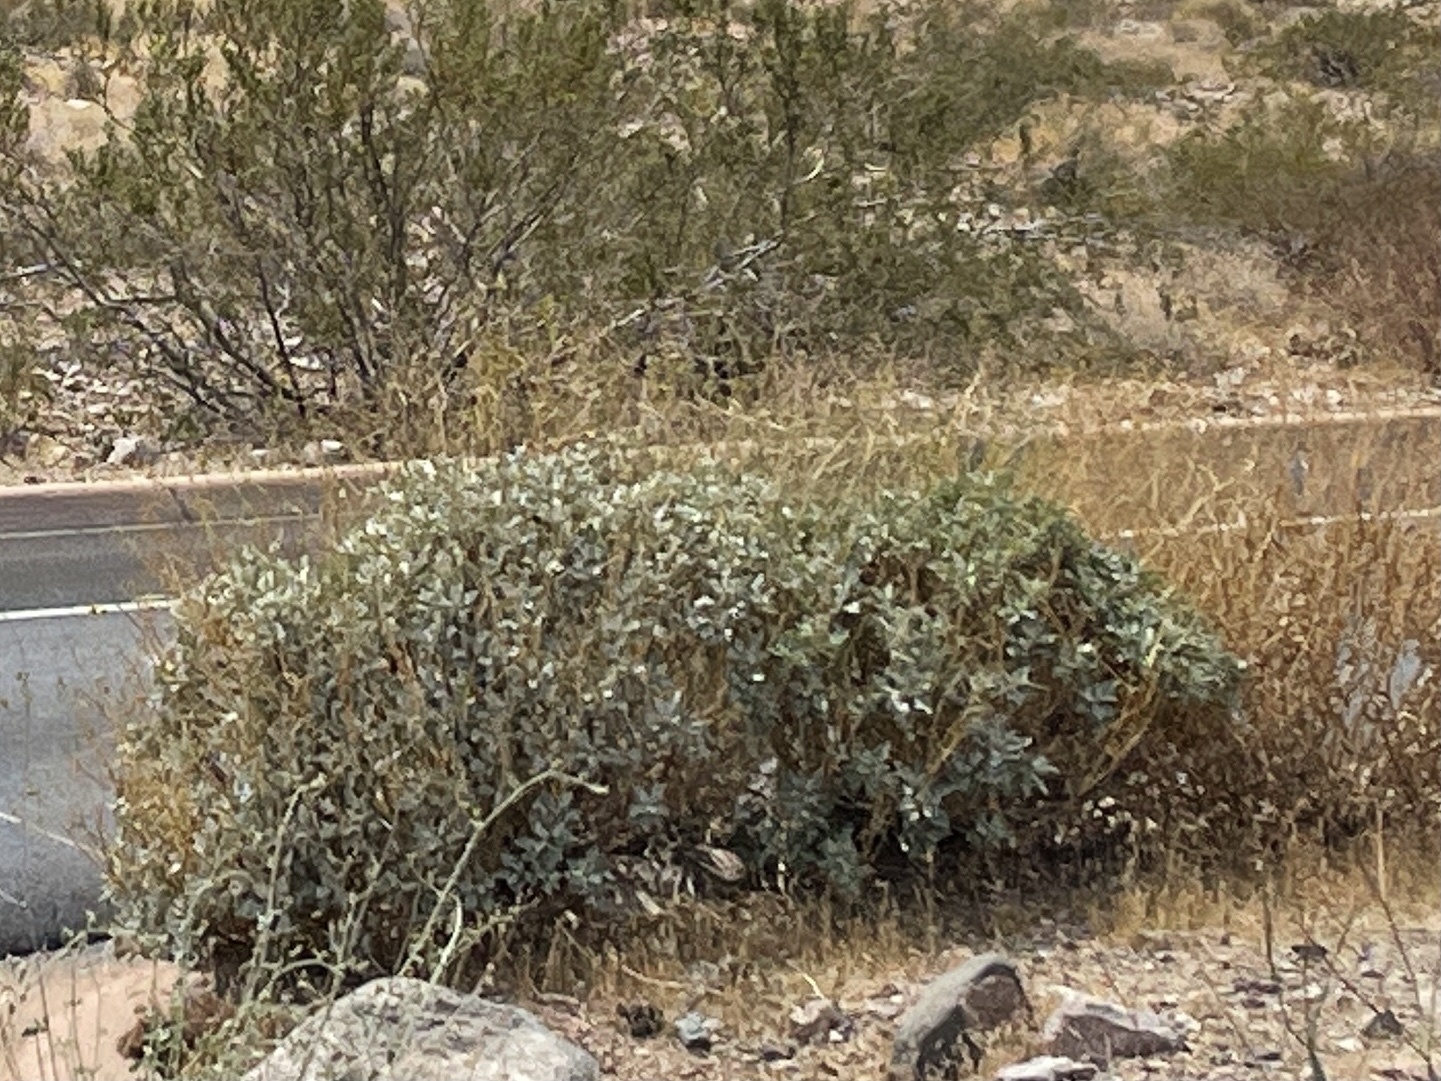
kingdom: Plantae
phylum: Tracheophyta
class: Magnoliopsida
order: Asterales
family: Asteraceae
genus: Encelia
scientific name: Encelia farinosa
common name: Brittlebush
